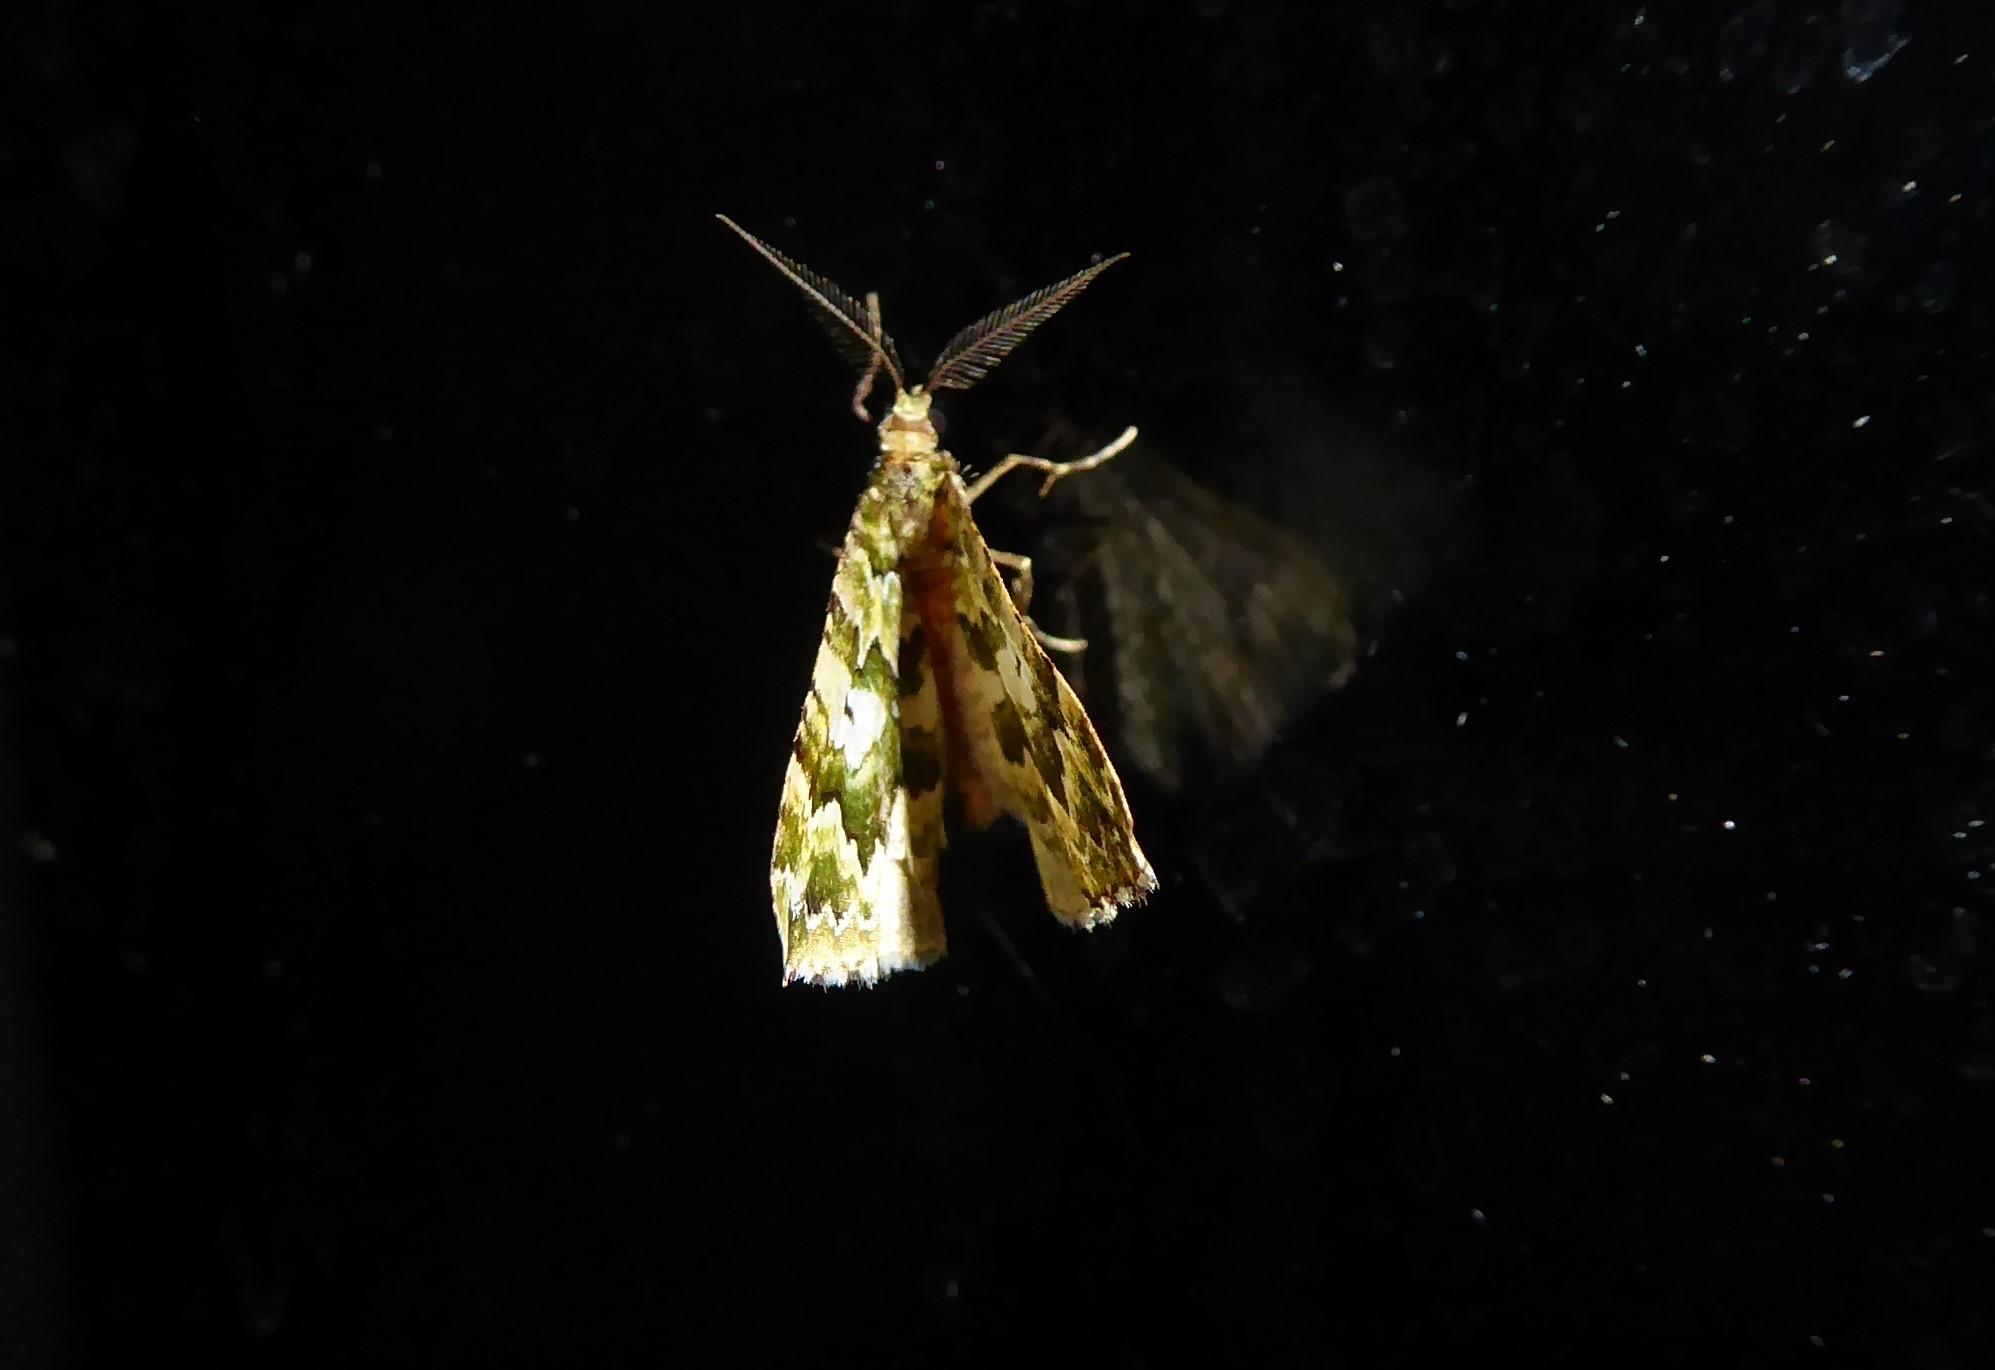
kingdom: Animalia
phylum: Arthropoda
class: Insecta
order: Lepidoptera
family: Geometridae
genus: Asaphodes
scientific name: Asaphodes beata
